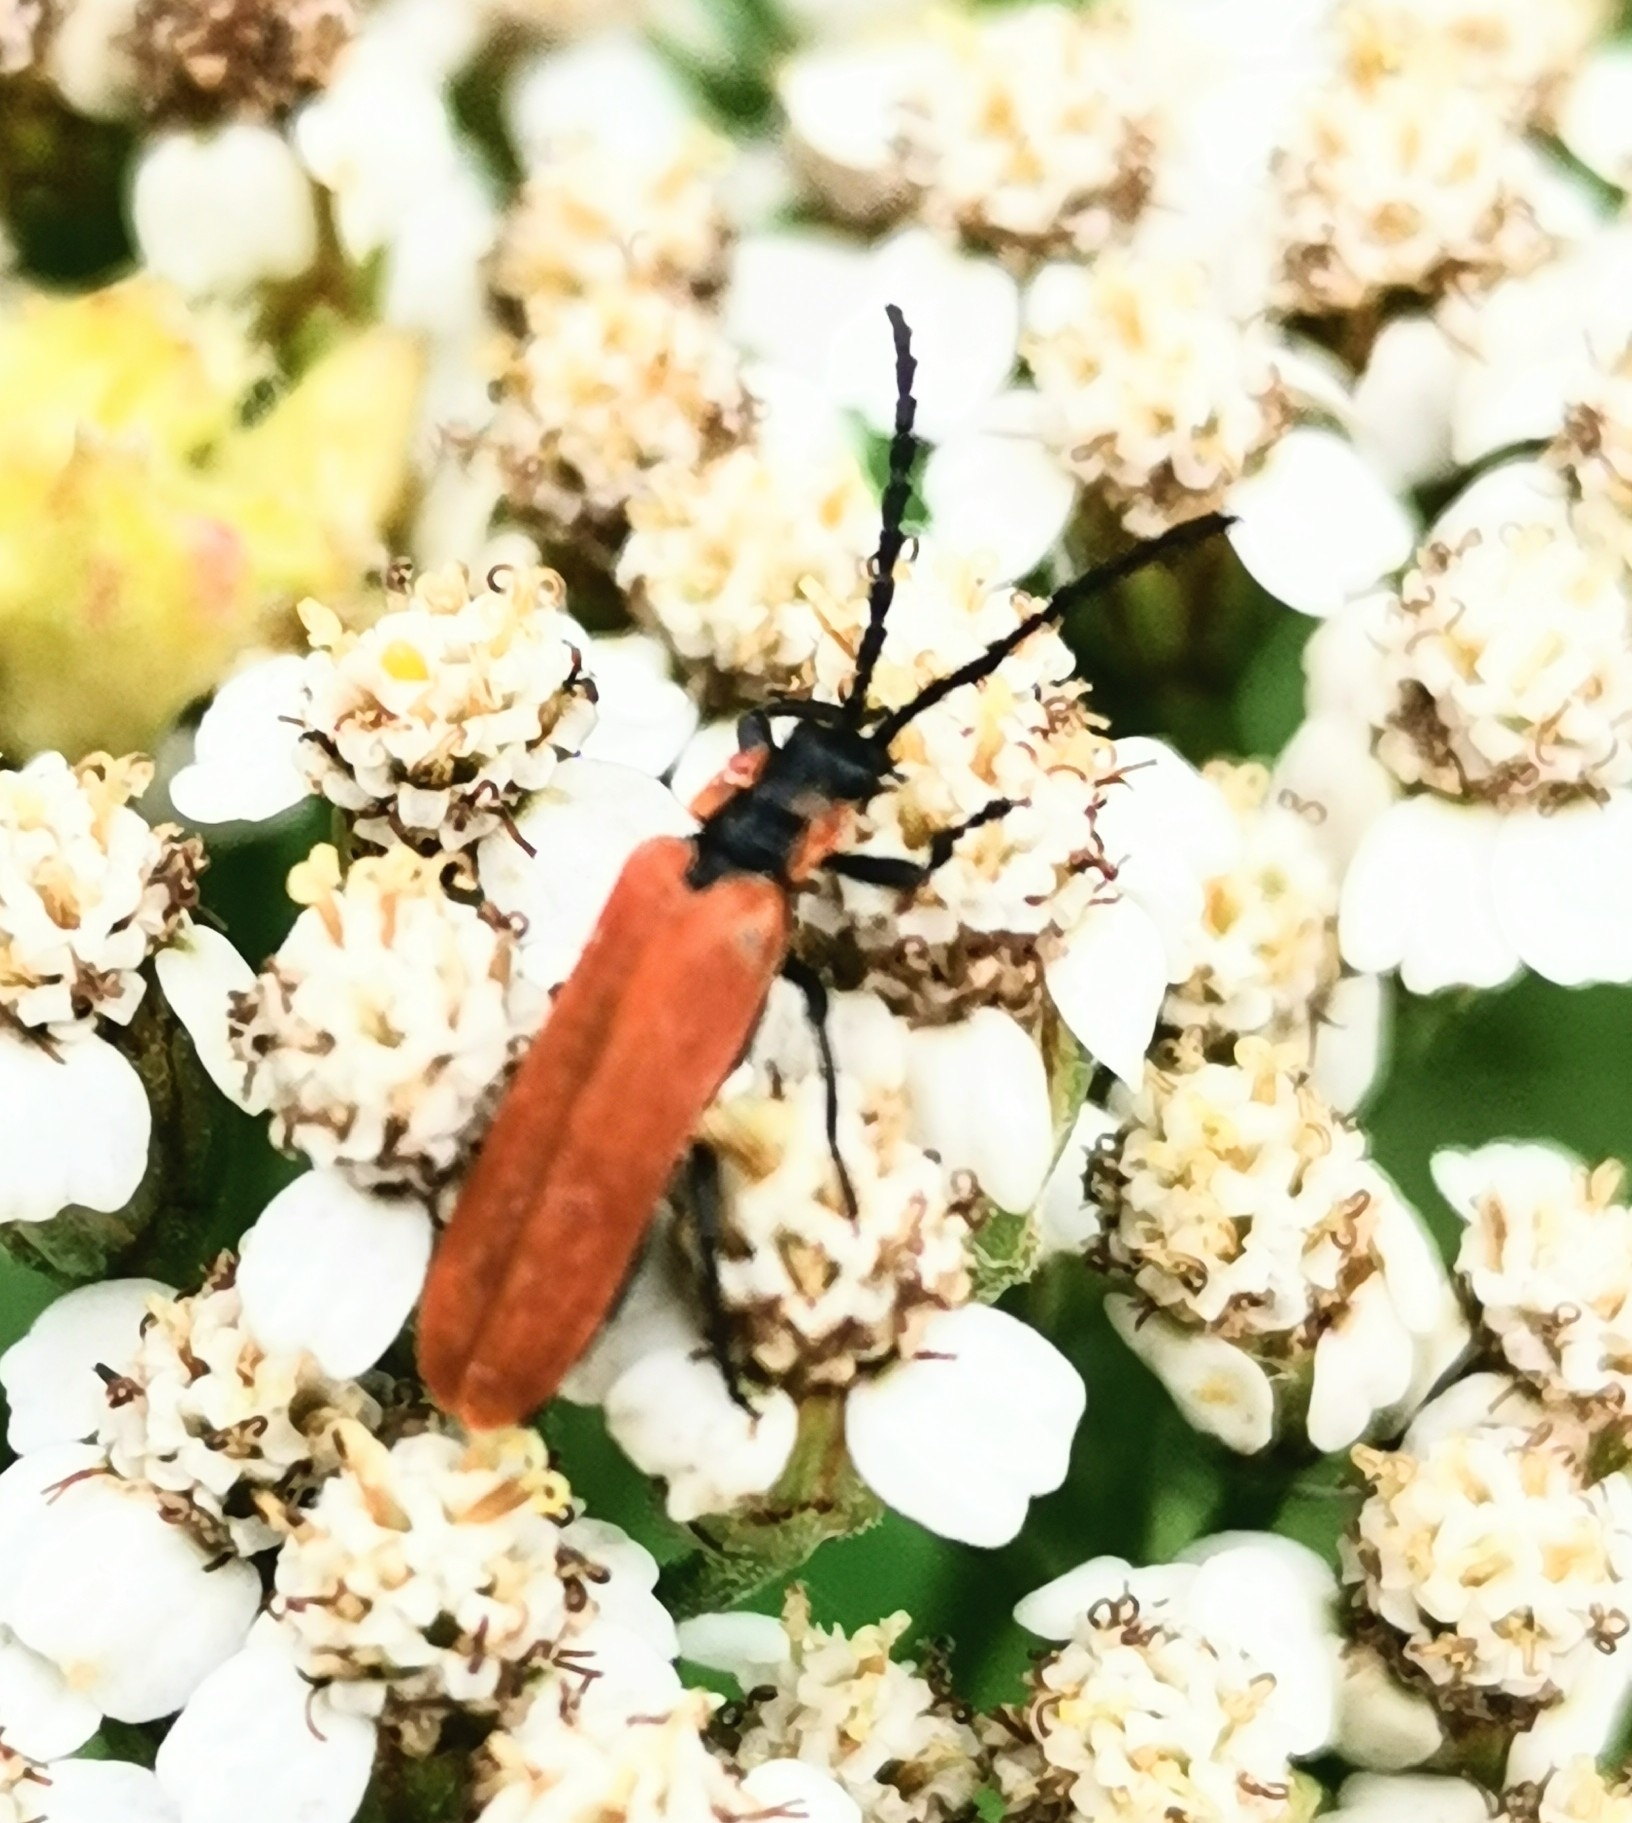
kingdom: Animalia
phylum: Arthropoda
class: Insecta
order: Coleoptera
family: Lycidae
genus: Lygistopterus
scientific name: Lygistopterus sanguineus
